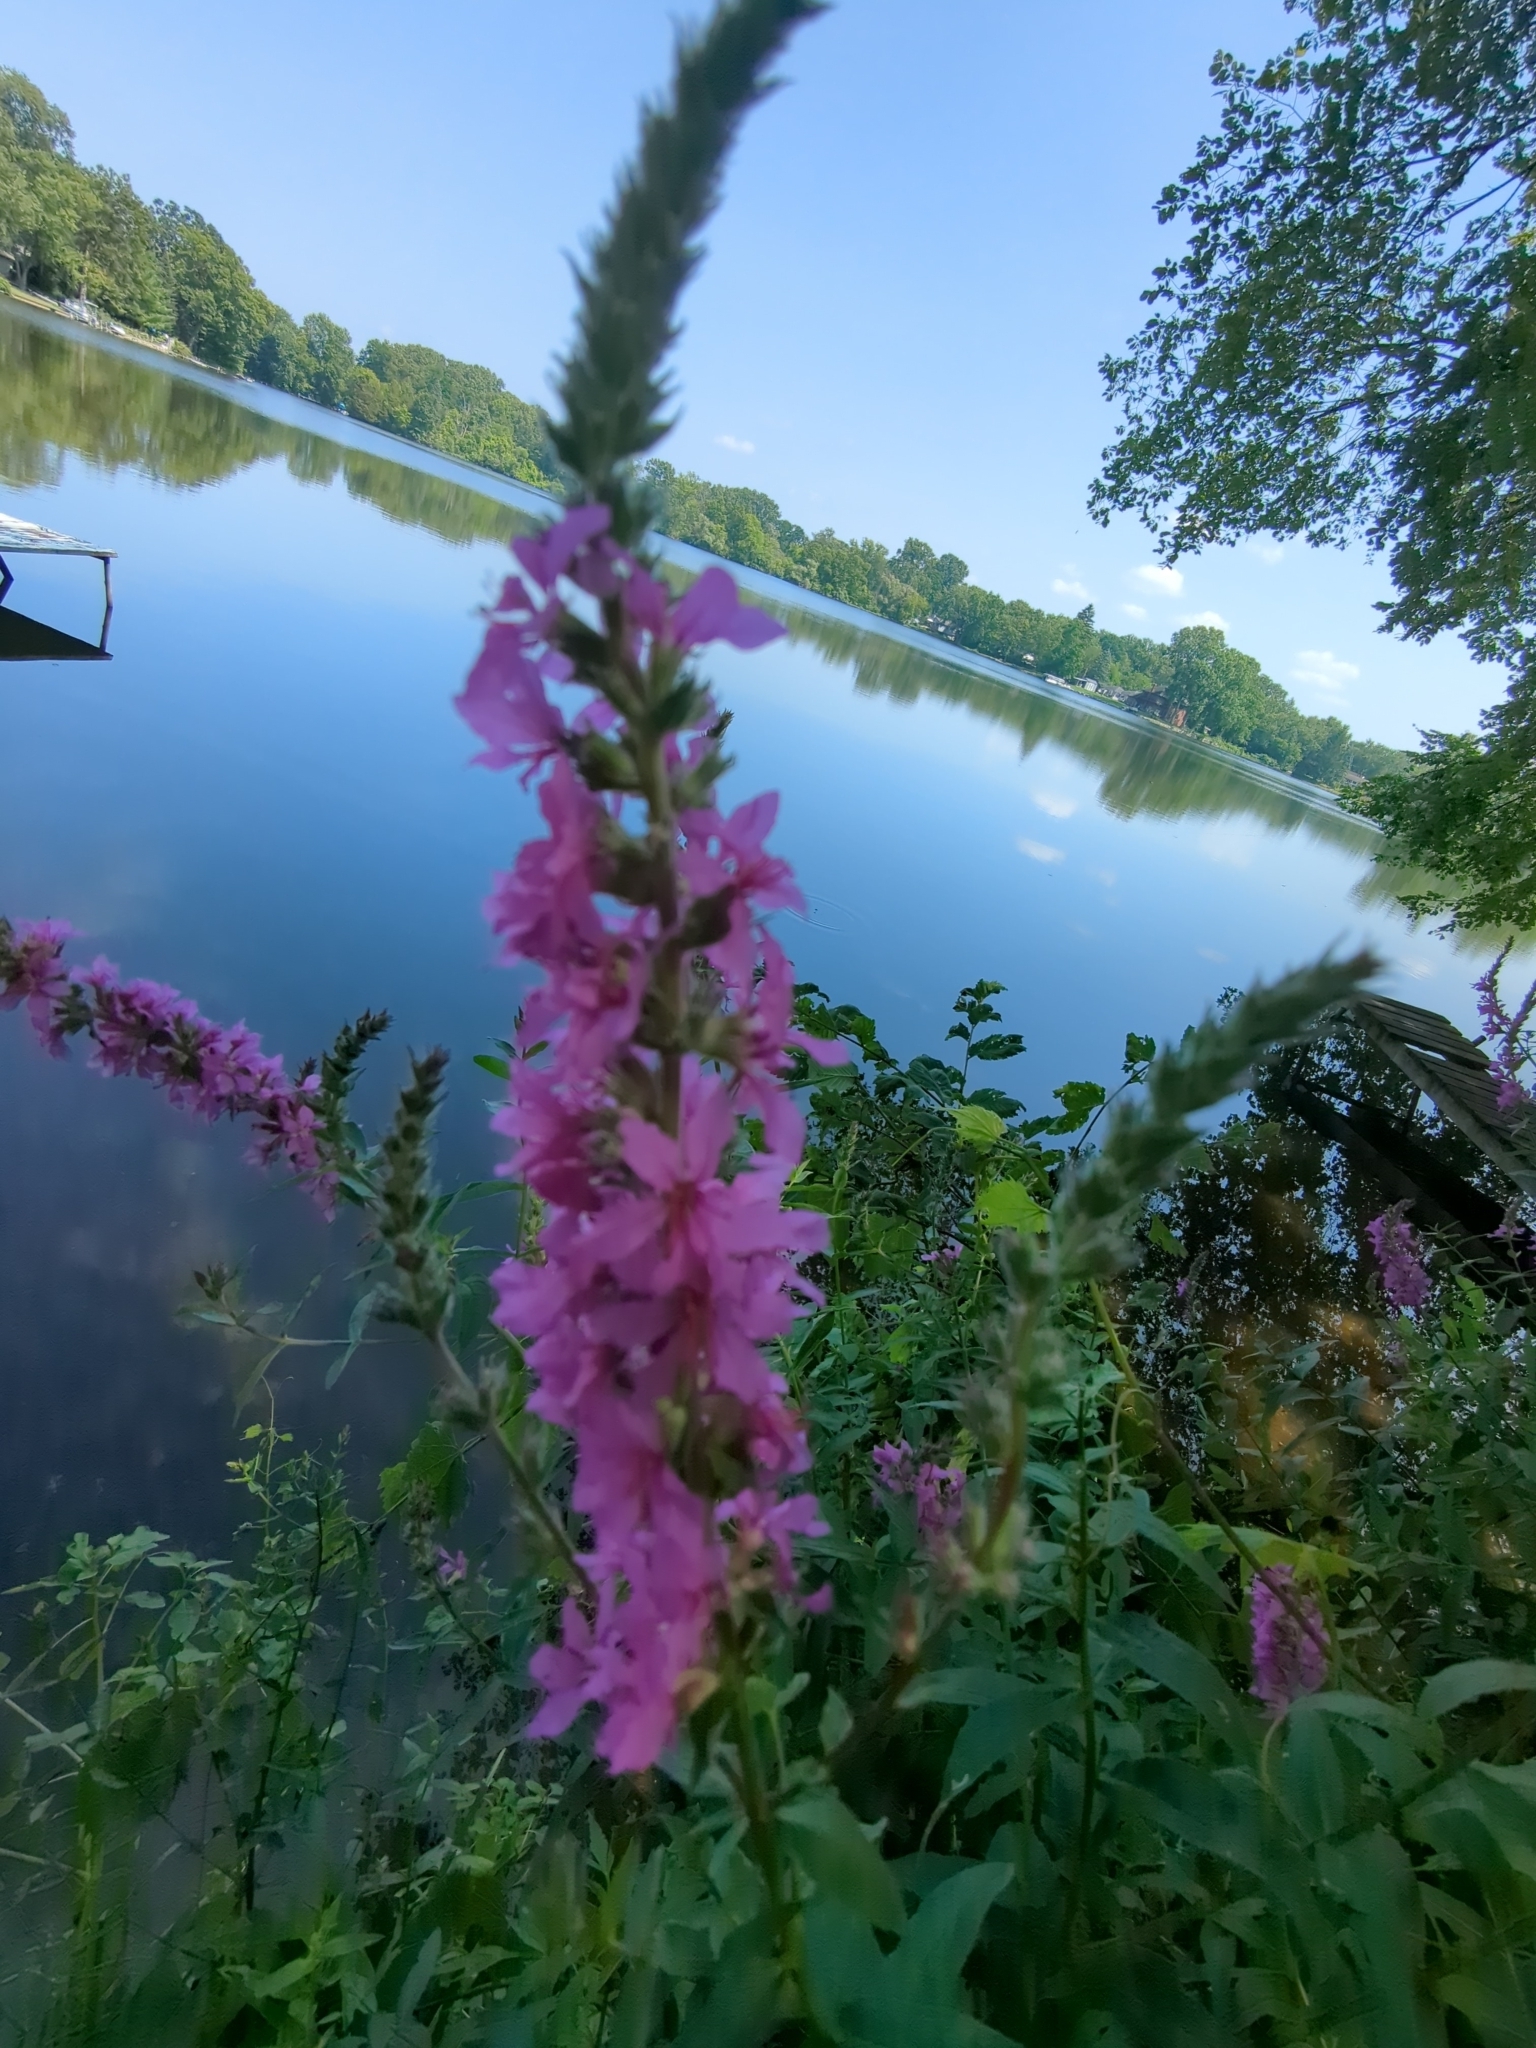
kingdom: Plantae
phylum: Tracheophyta
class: Magnoliopsida
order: Myrtales
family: Lythraceae
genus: Lythrum
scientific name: Lythrum salicaria
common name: Purple loosestrife
